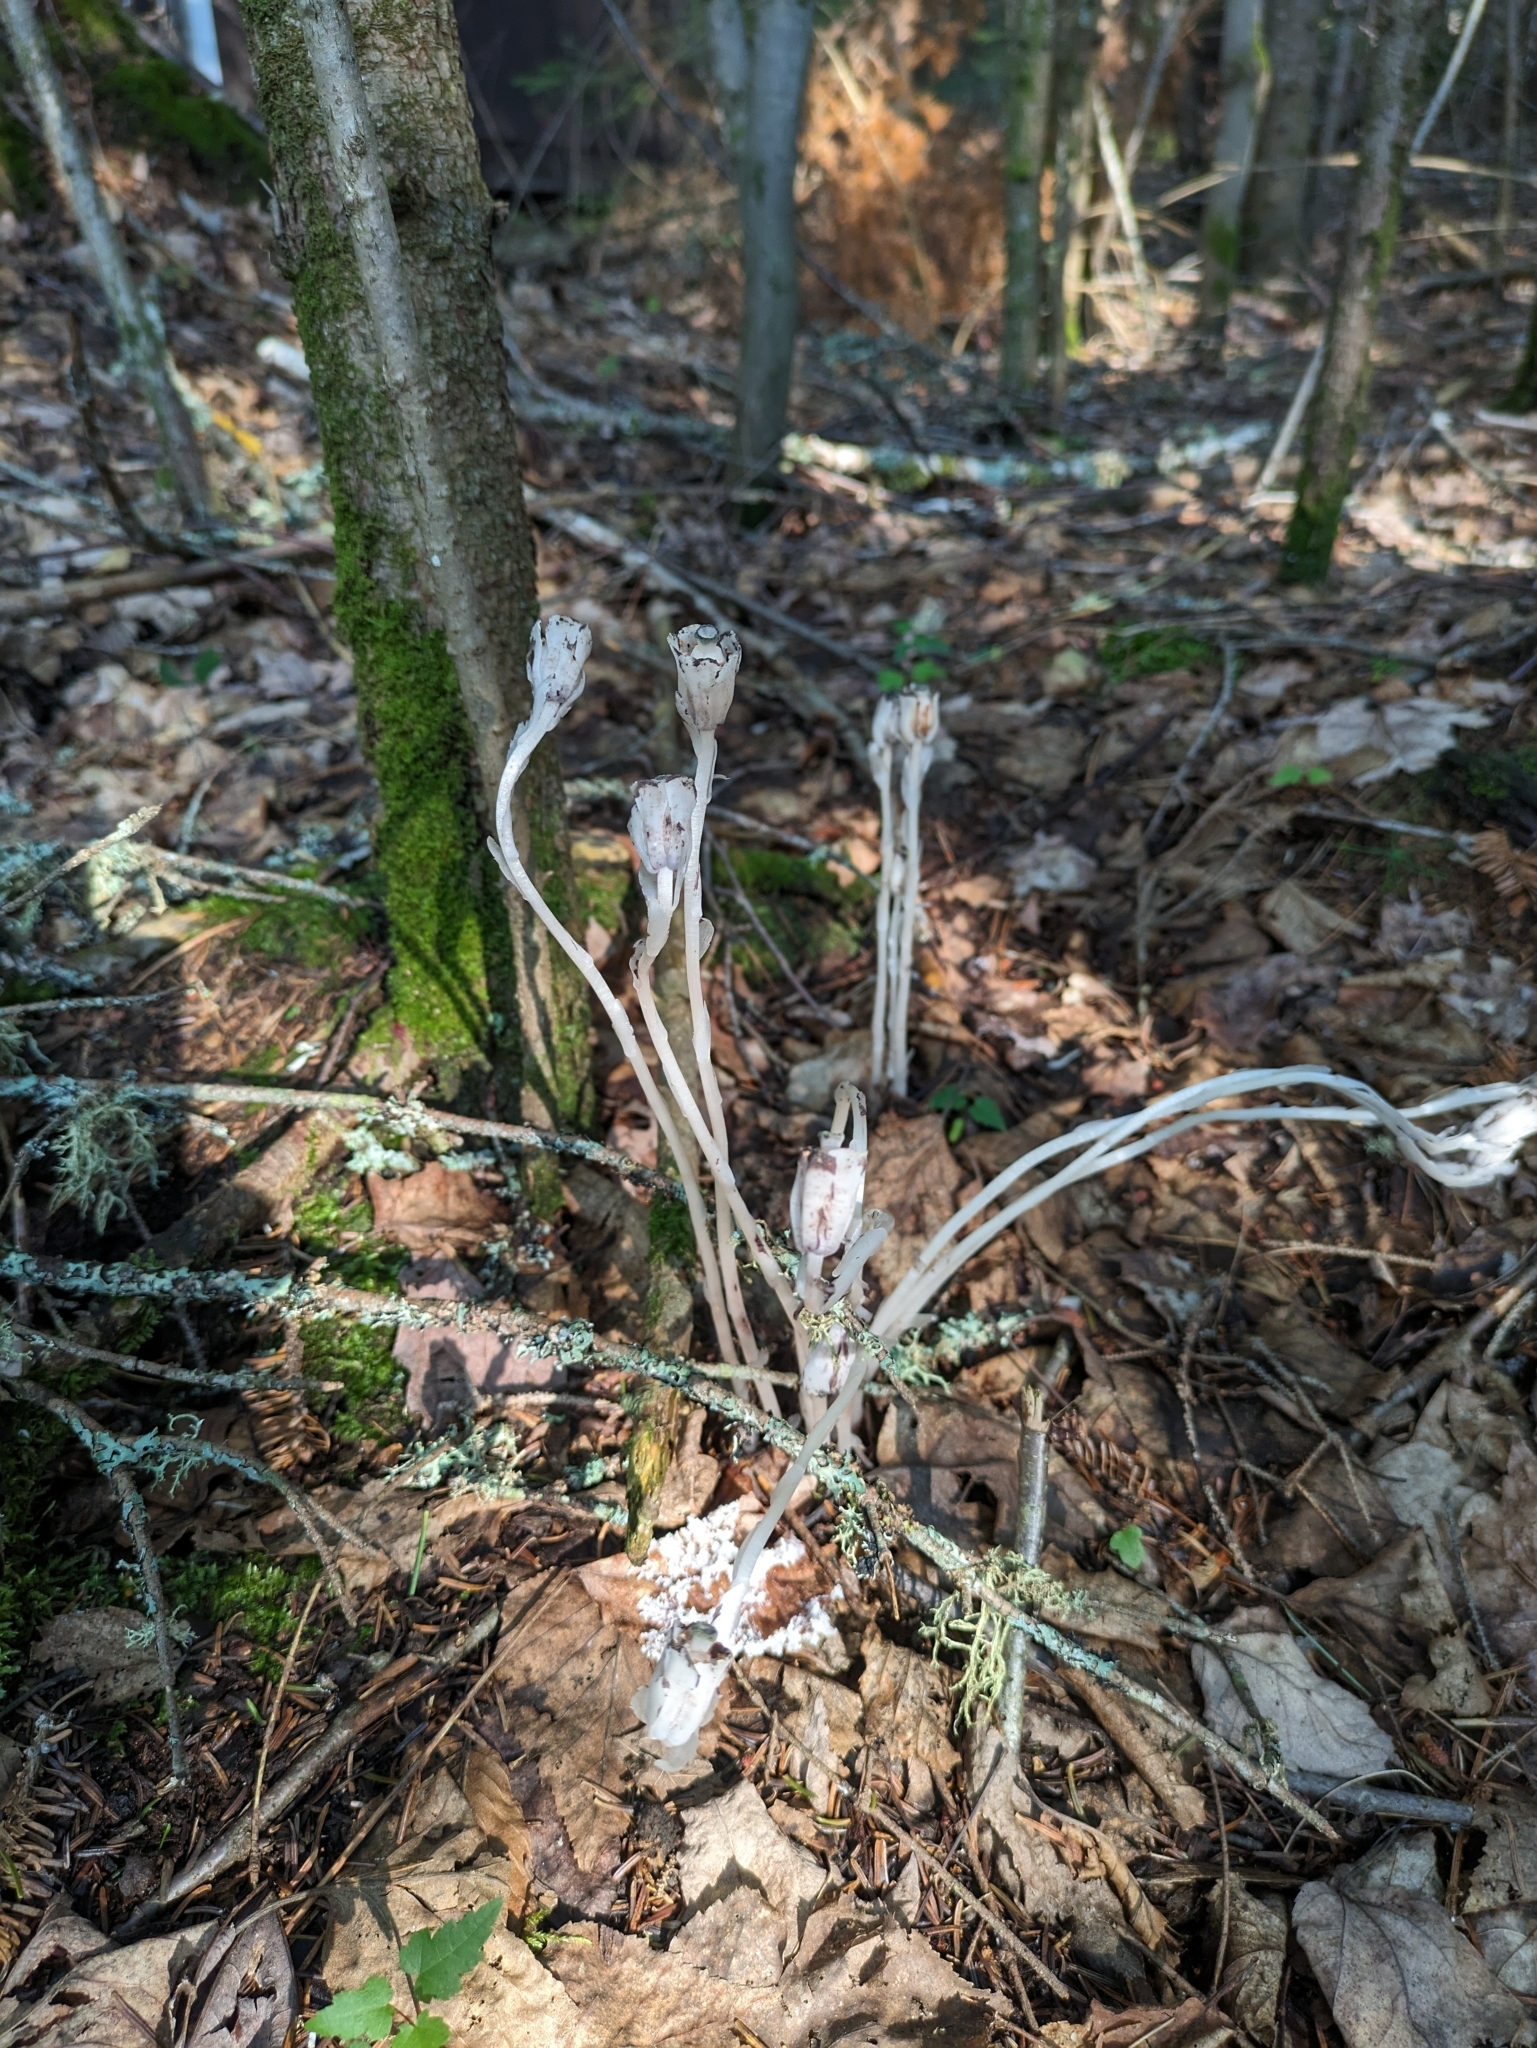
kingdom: Plantae
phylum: Tracheophyta
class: Magnoliopsida
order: Ericales
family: Ericaceae
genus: Monotropa
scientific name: Monotropa uniflora
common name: Convulsion root
